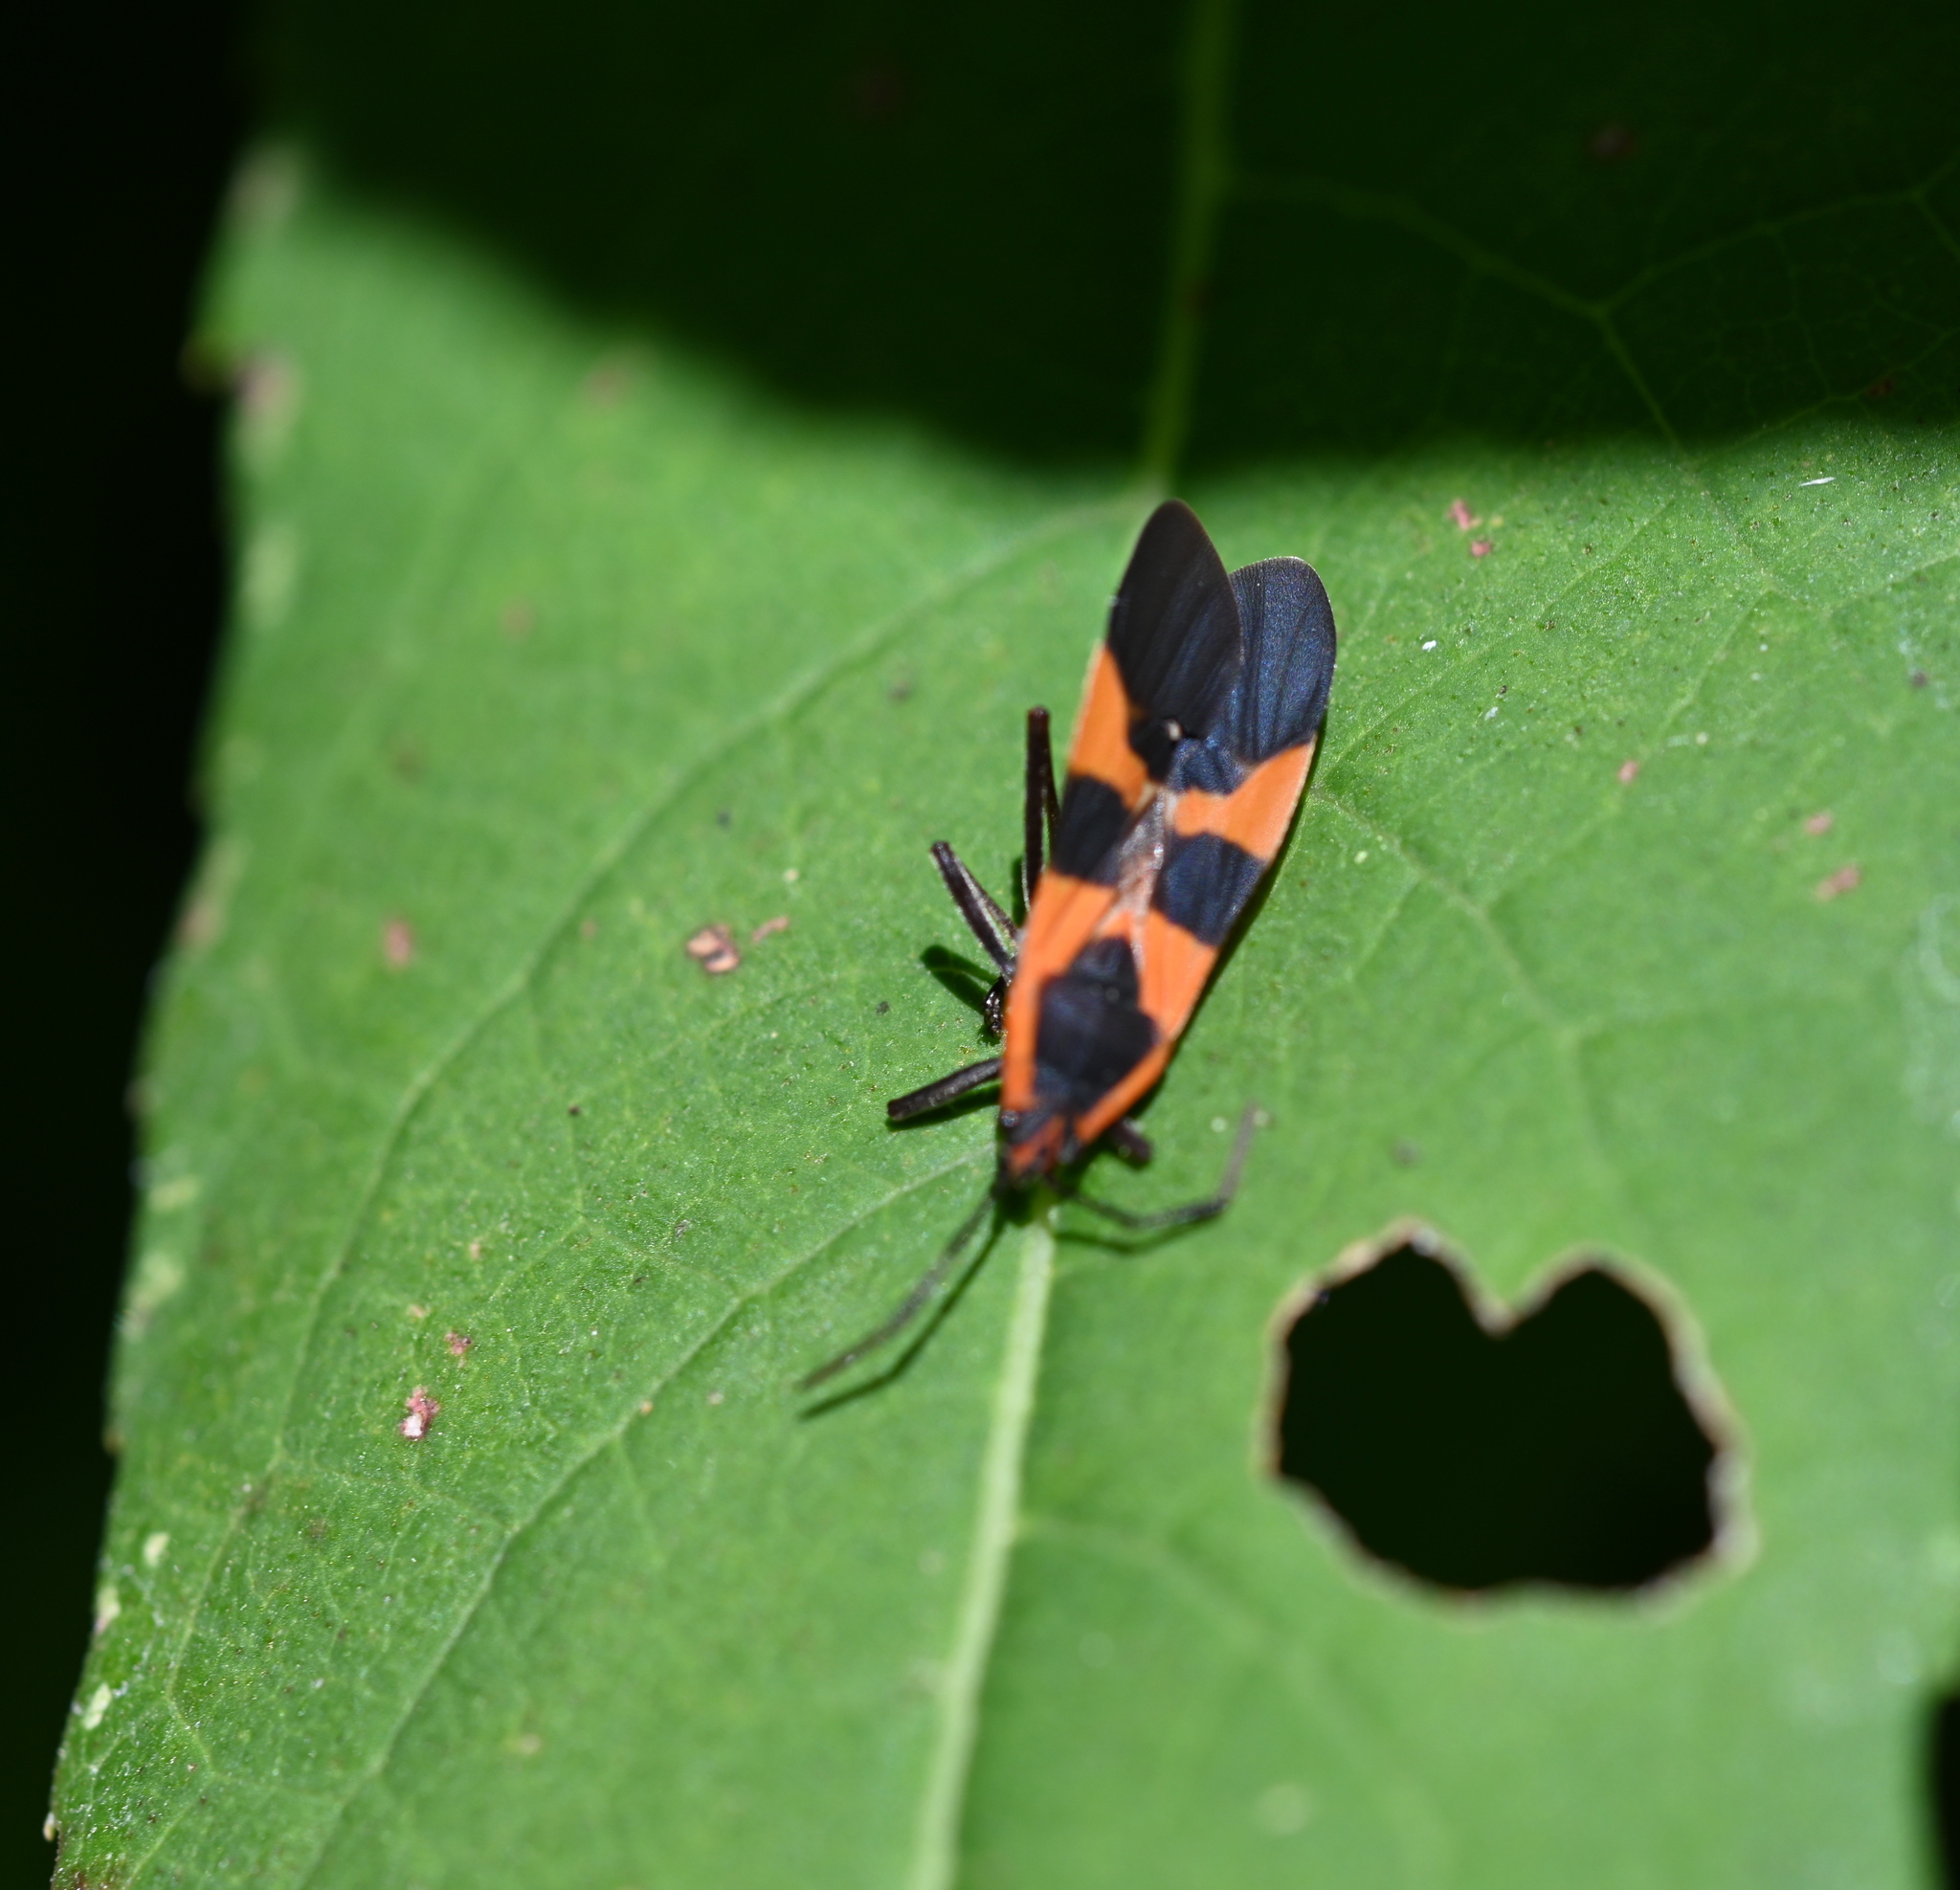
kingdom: Animalia
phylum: Arthropoda
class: Insecta
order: Hemiptera
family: Lygaeidae
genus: Oncopeltus
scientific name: Oncopeltus fasciatus
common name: Large milkweed bug
